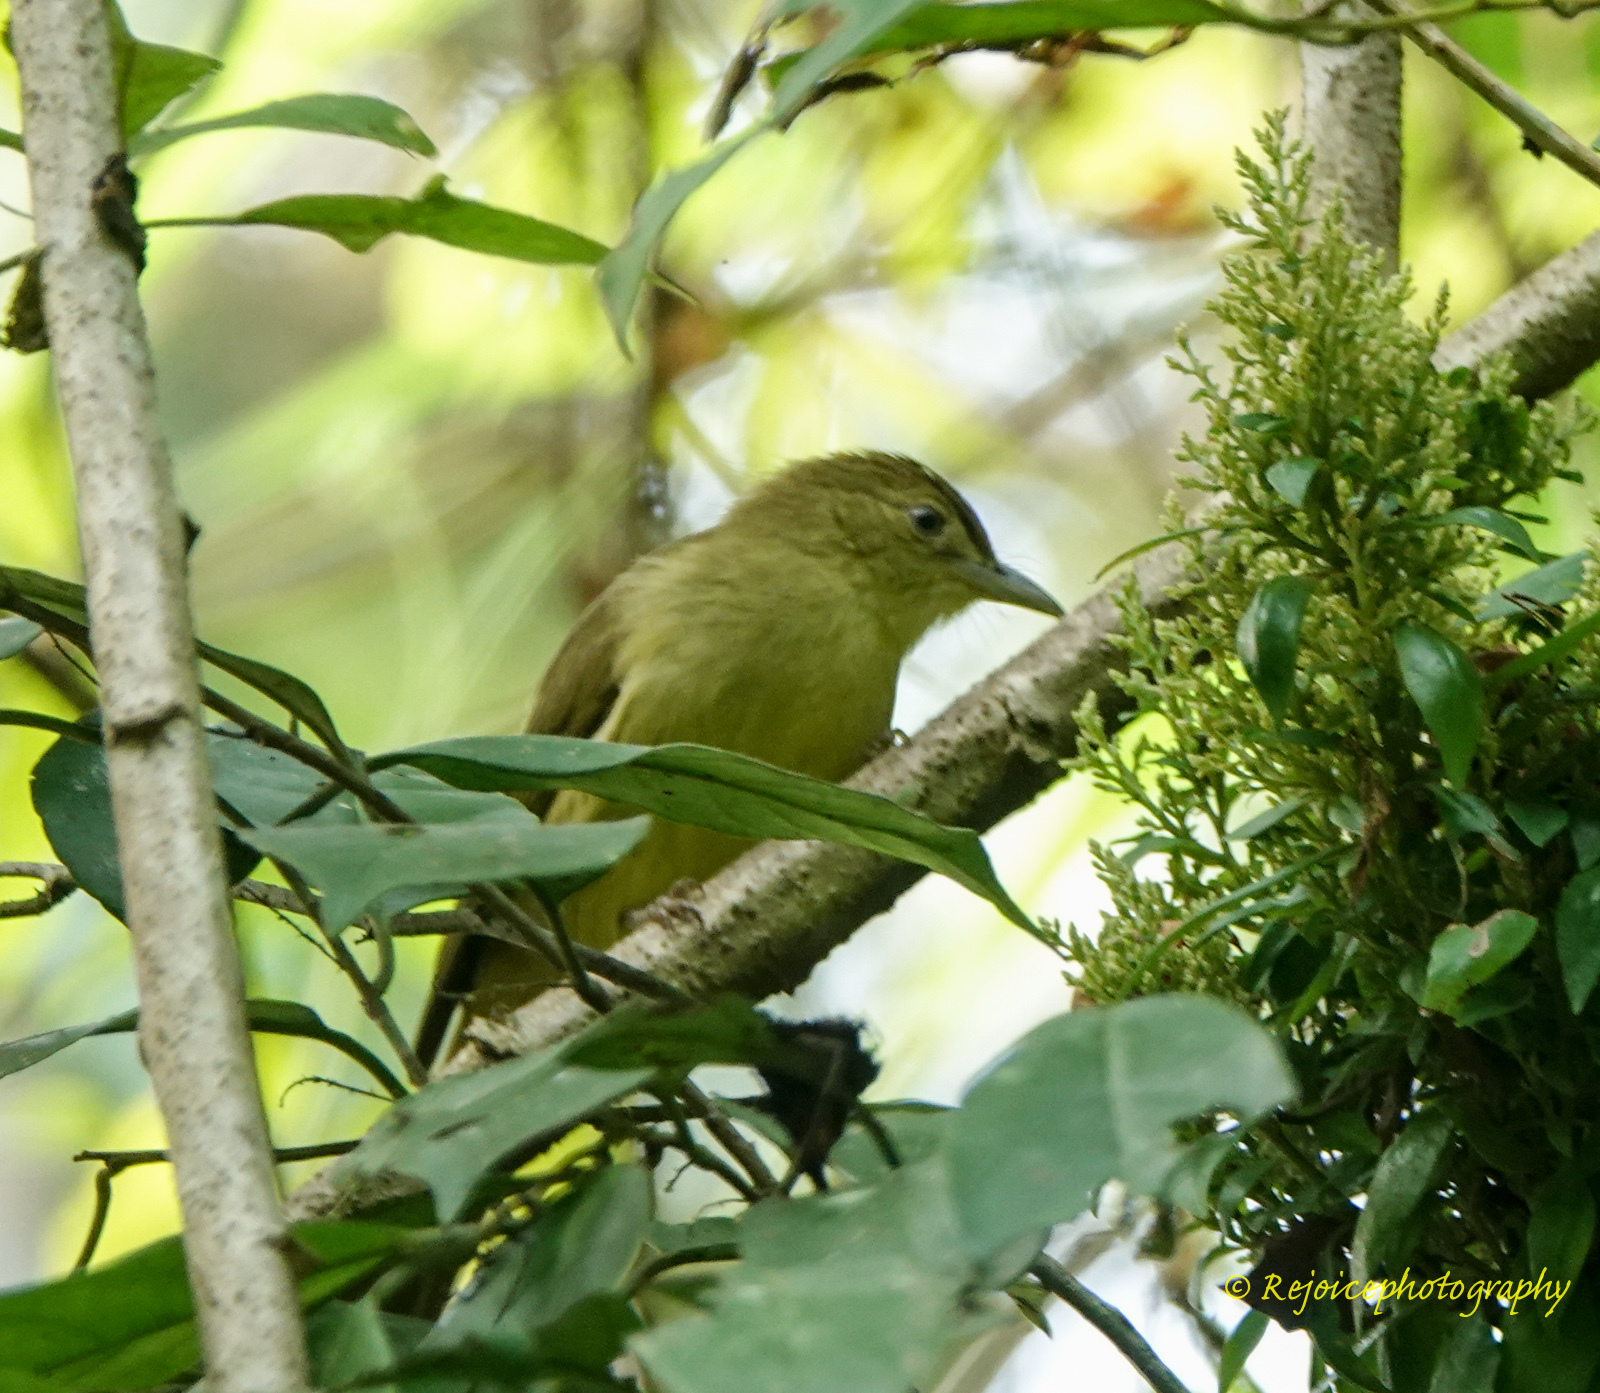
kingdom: Animalia
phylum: Chordata
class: Aves
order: Passeriformes
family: Pycnonotidae
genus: Iole
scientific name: Iole virescens
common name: Olive bulbul
